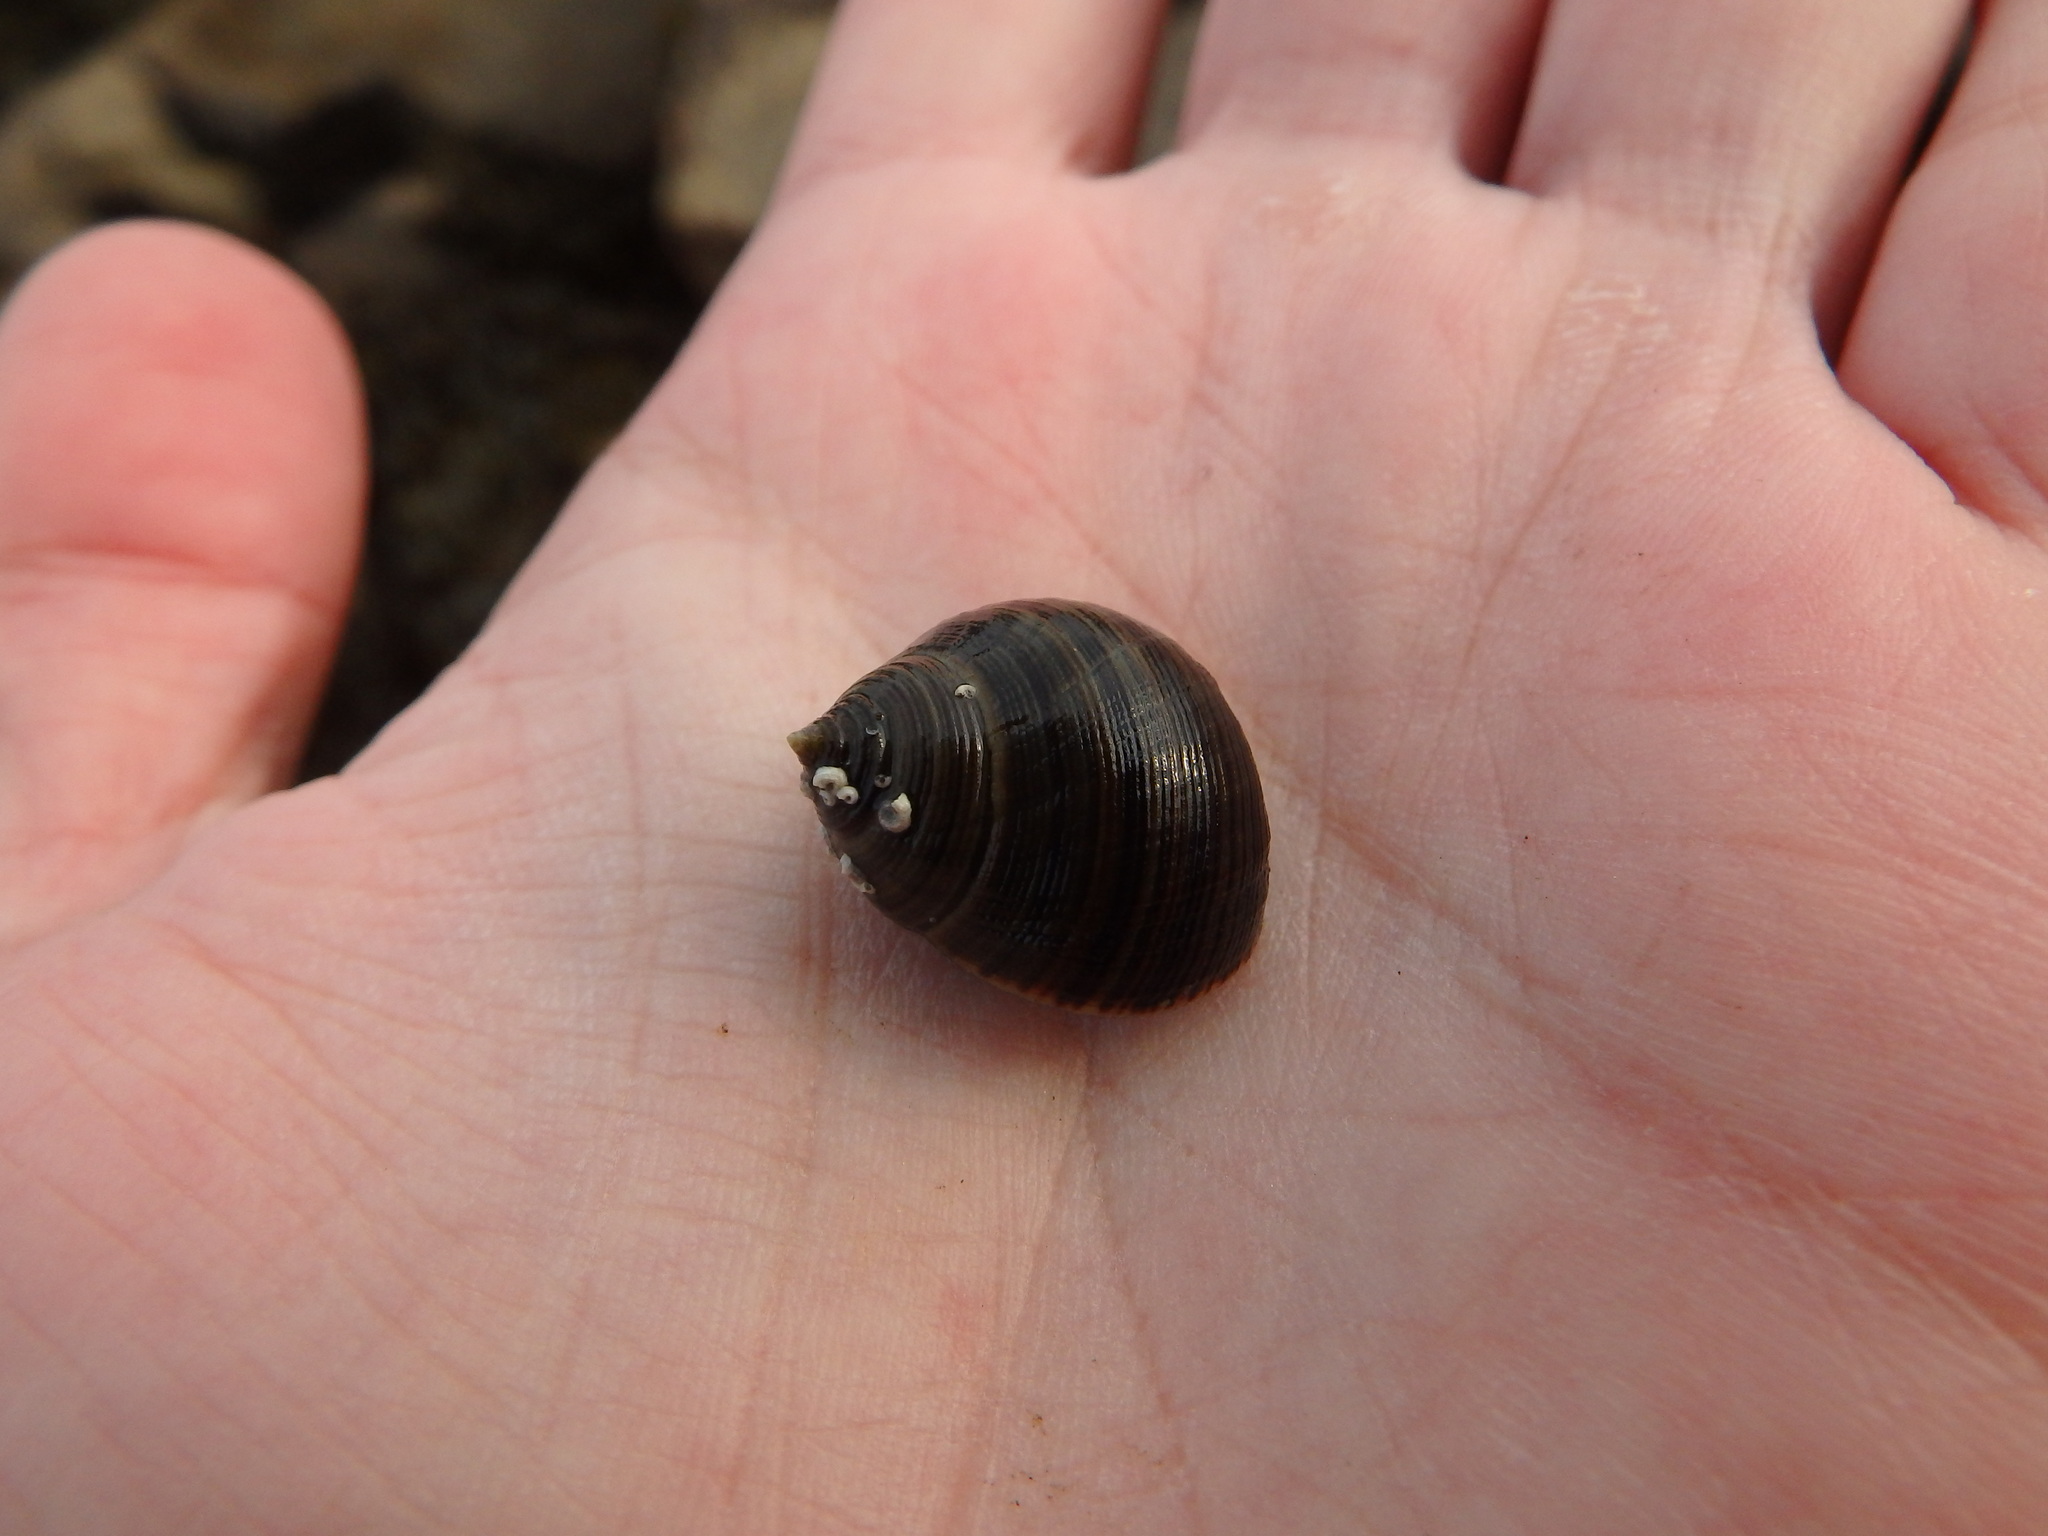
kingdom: Animalia
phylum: Mollusca
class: Gastropoda
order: Littorinimorpha
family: Littorinidae
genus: Littorina
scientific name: Littorina littorea
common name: Common periwinkle
